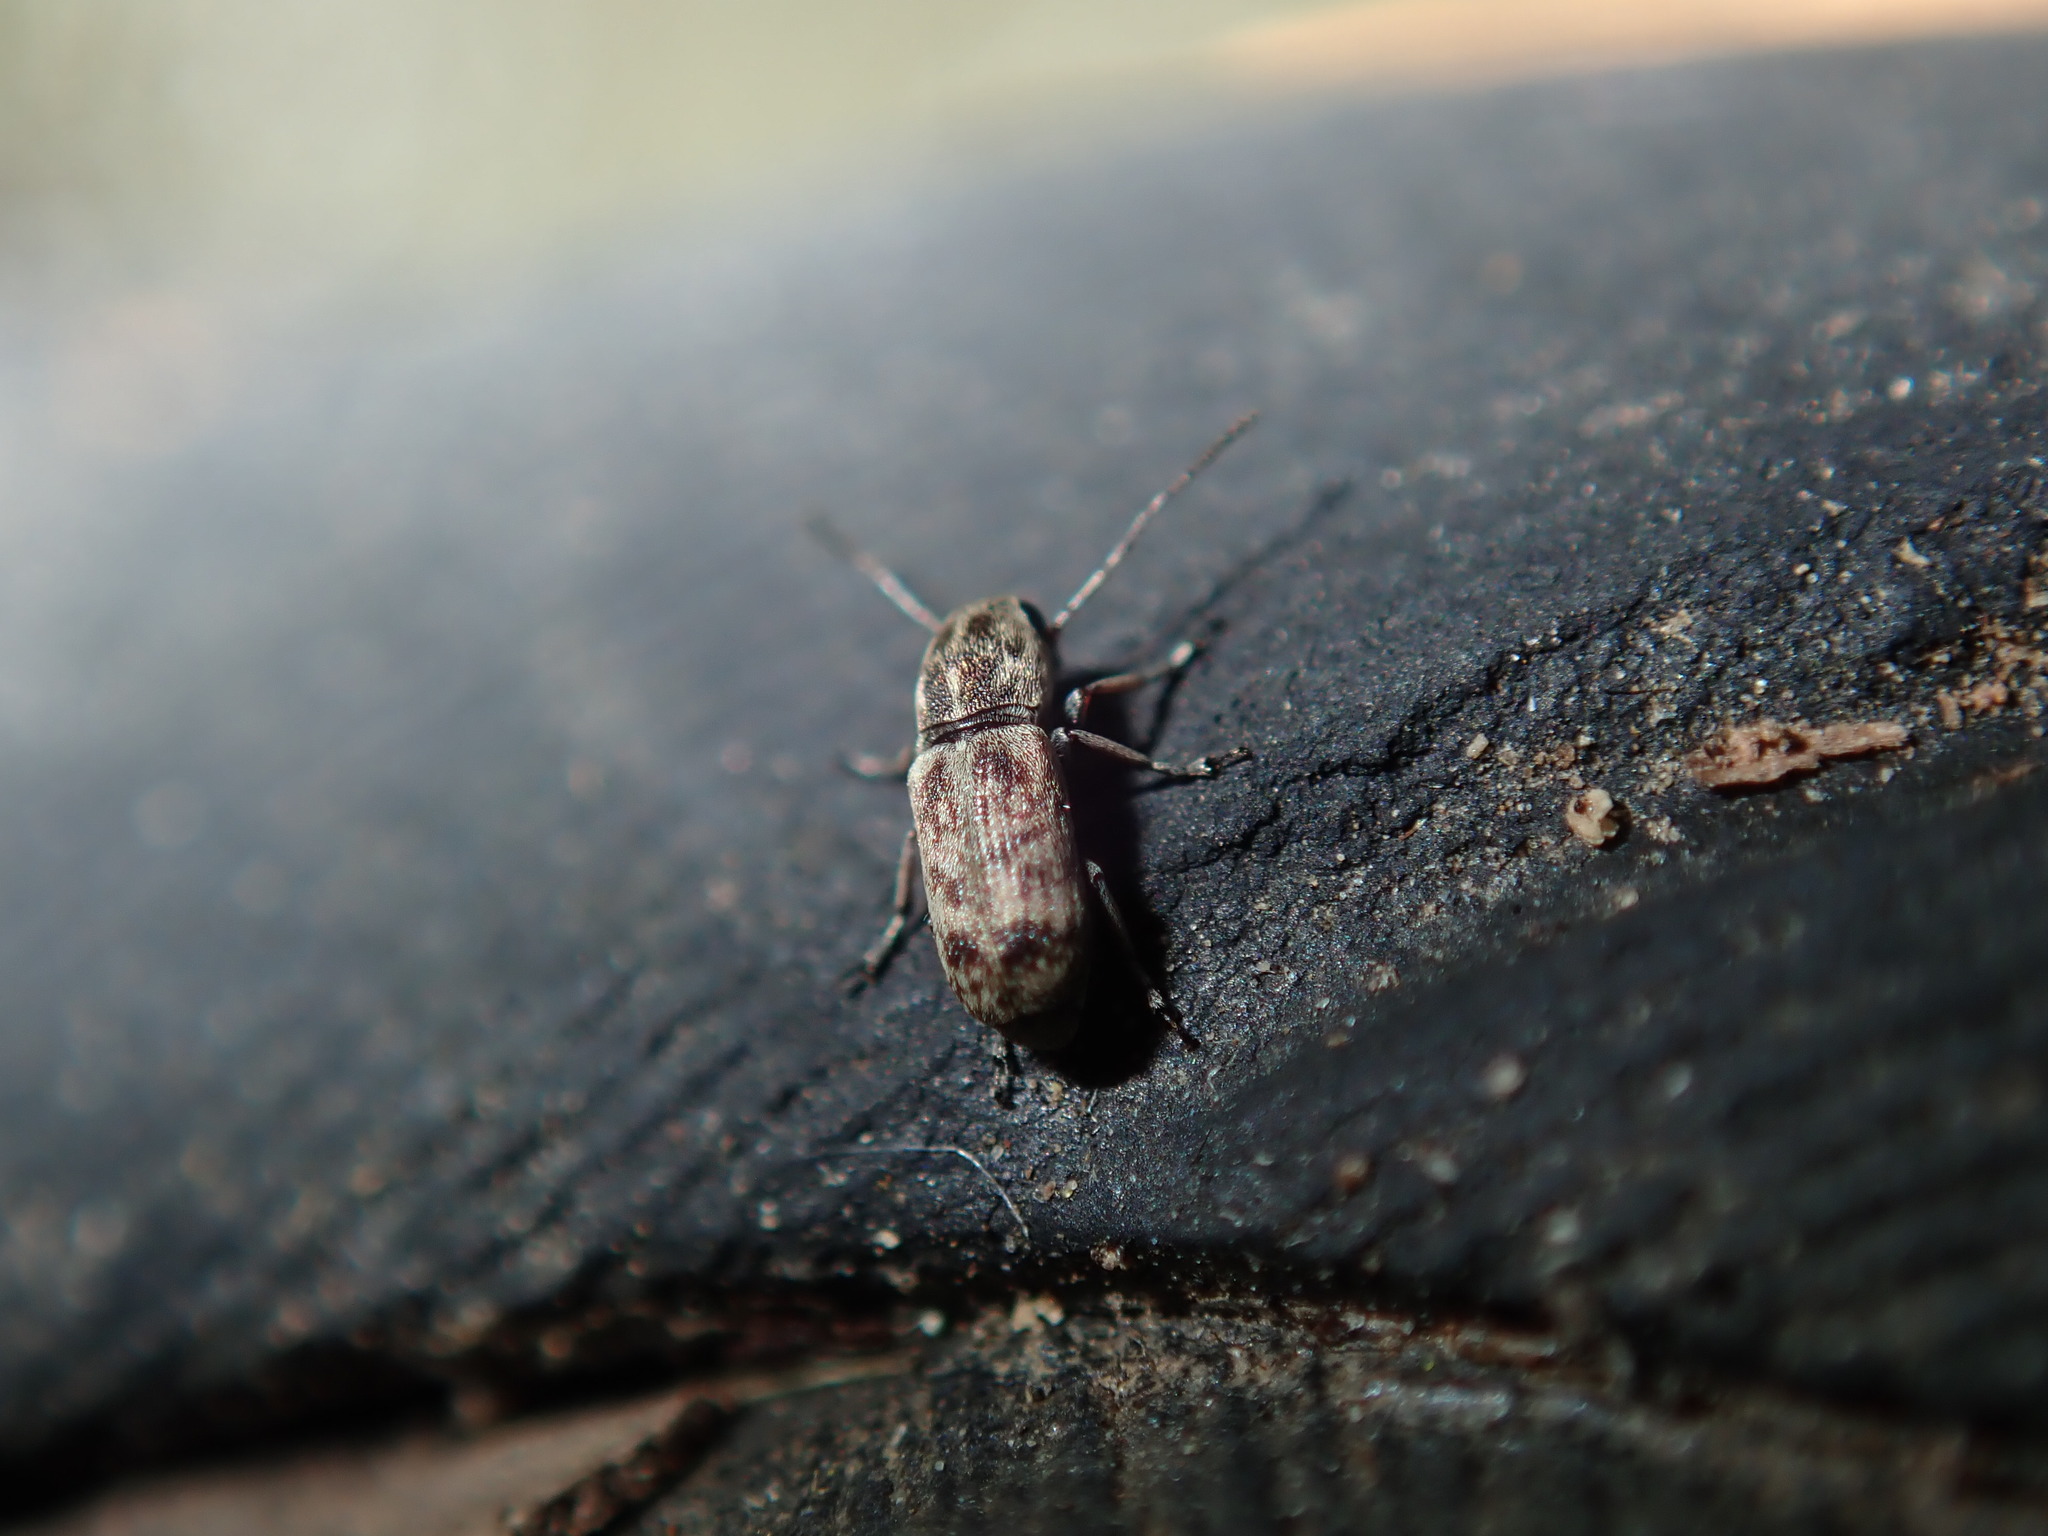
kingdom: Animalia
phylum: Arthropoda
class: Insecta
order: Coleoptera
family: Anthribidae
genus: Euciodes
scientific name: Euciodes suturalis
